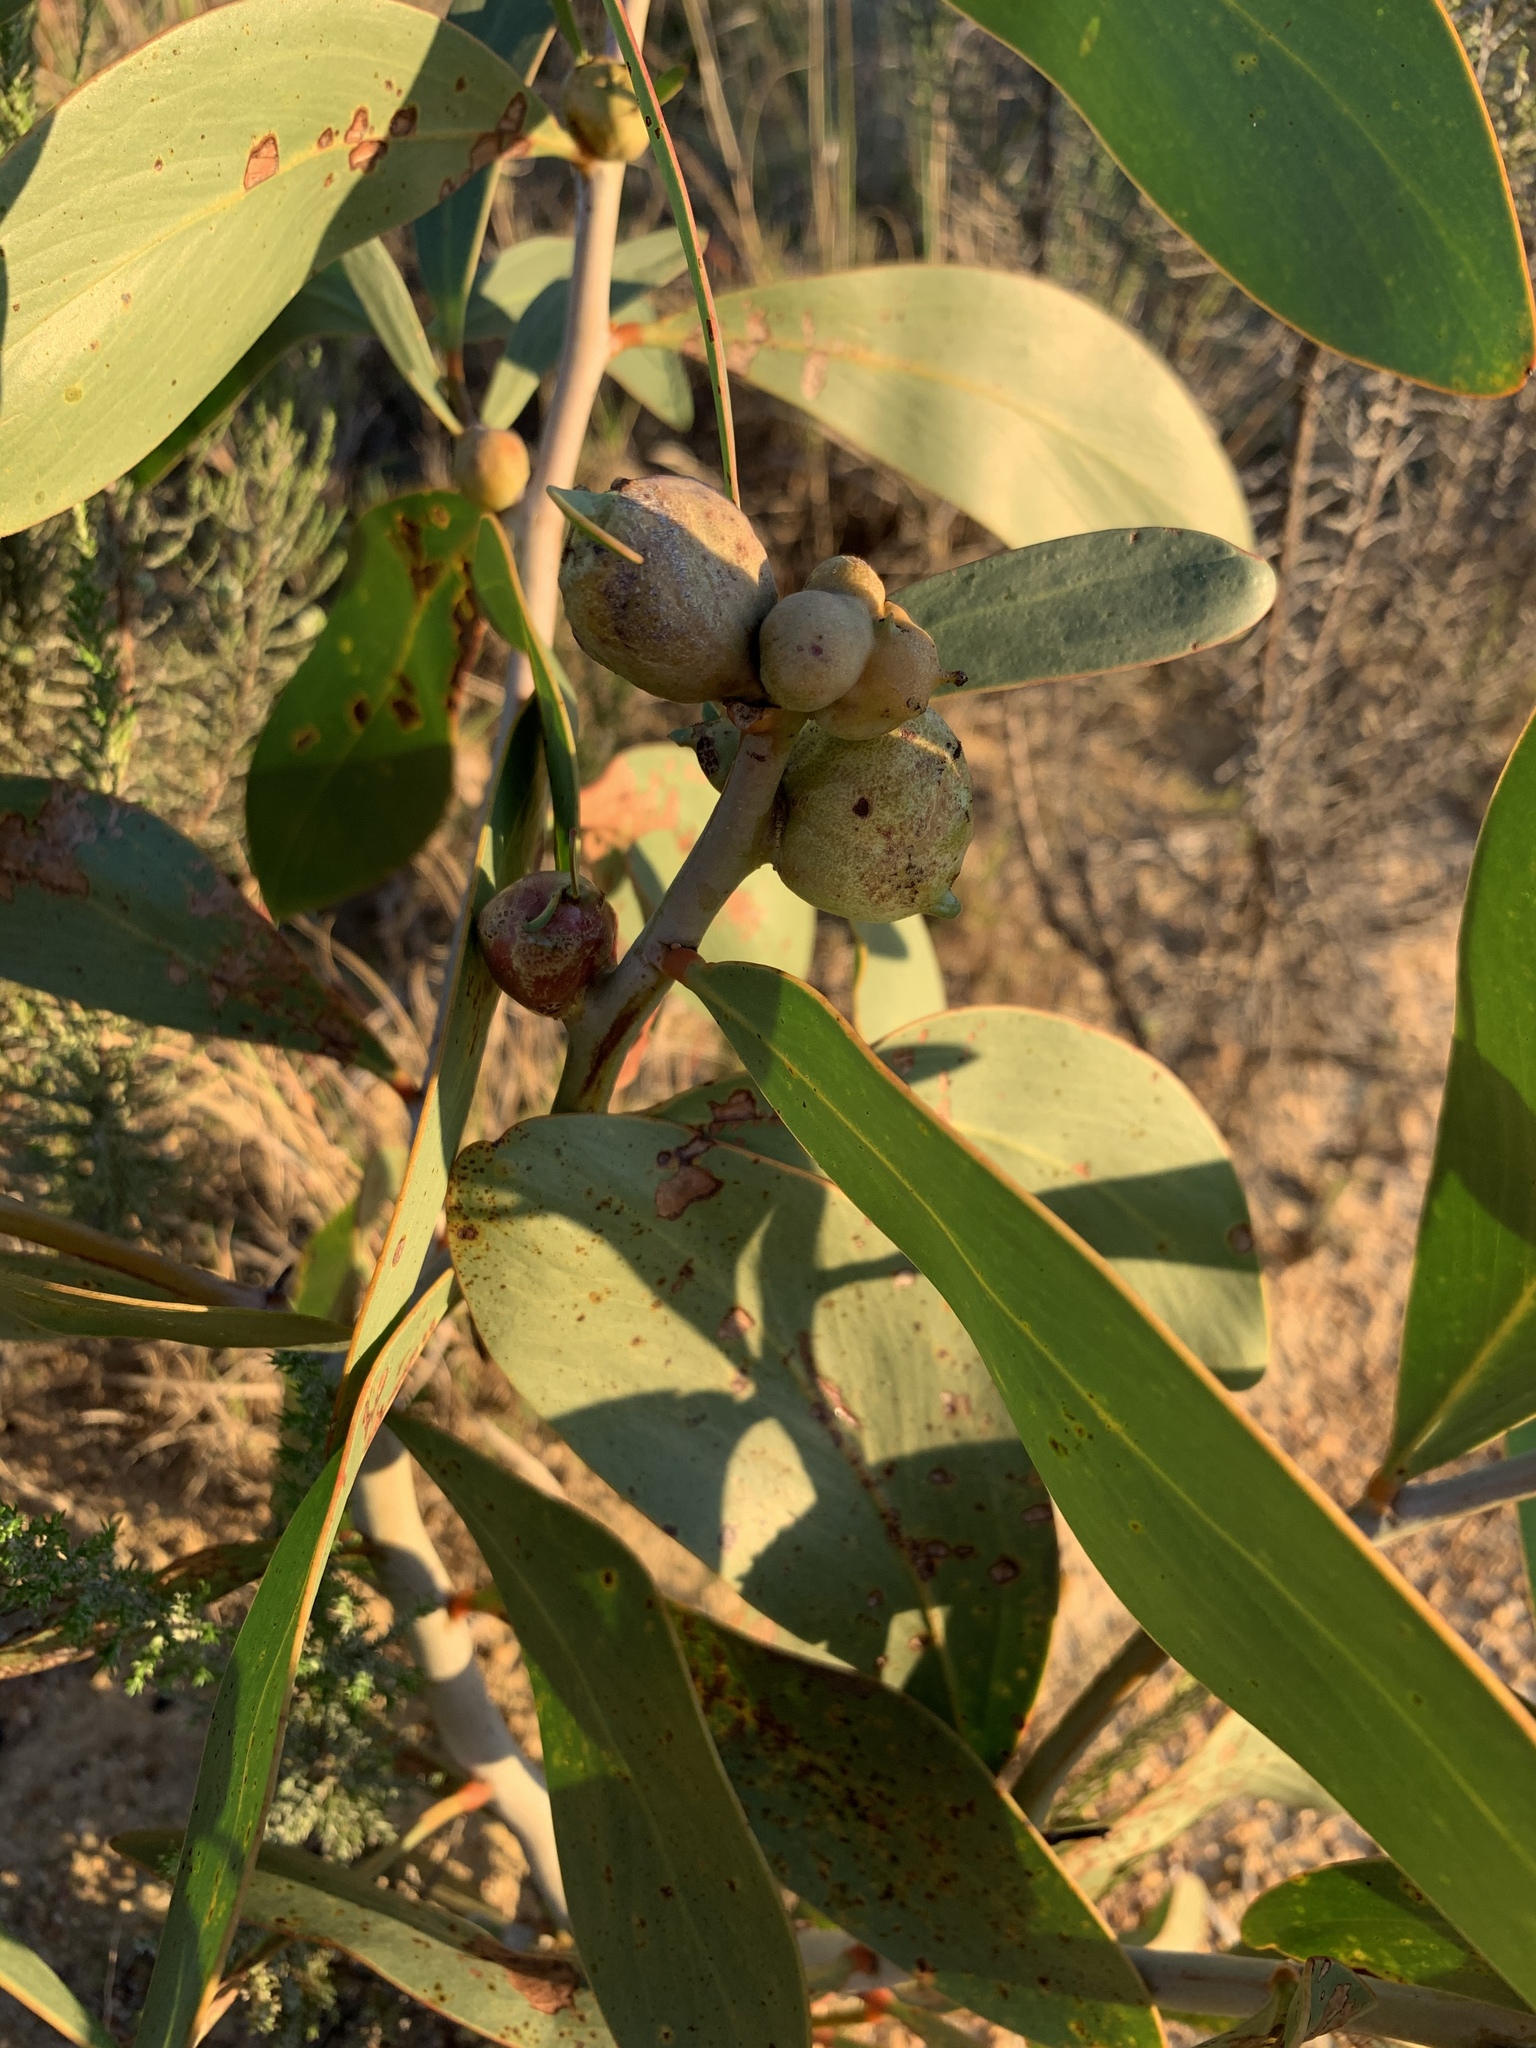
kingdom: Plantae
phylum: Tracheophyta
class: Magnoliopsida
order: Fabales
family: Fabaceae
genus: Acacia
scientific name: Acacia pycnantha
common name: Golden wattle
